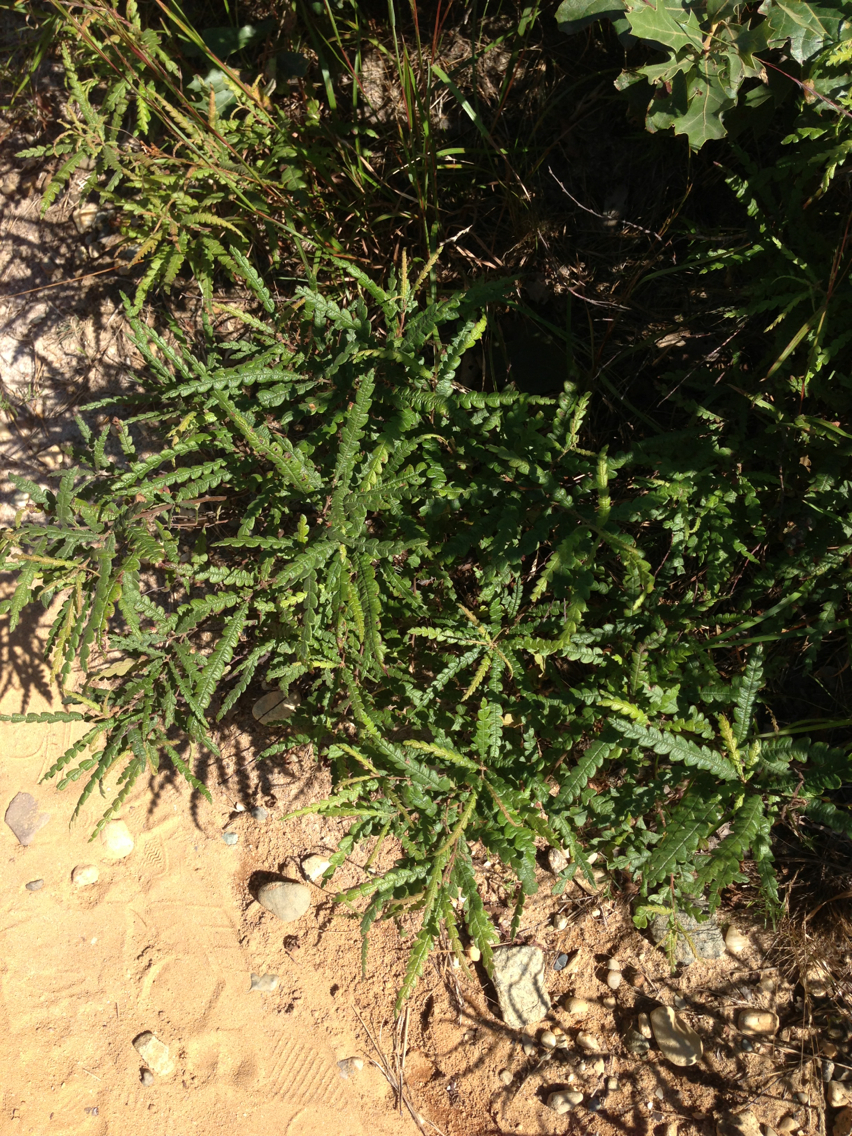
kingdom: Plantae
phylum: Tracheophyta
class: Magnoliopsida
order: Fagales
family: Myricaceae
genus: Comptonia
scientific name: Comptonia peregrina
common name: Sweet-fern
